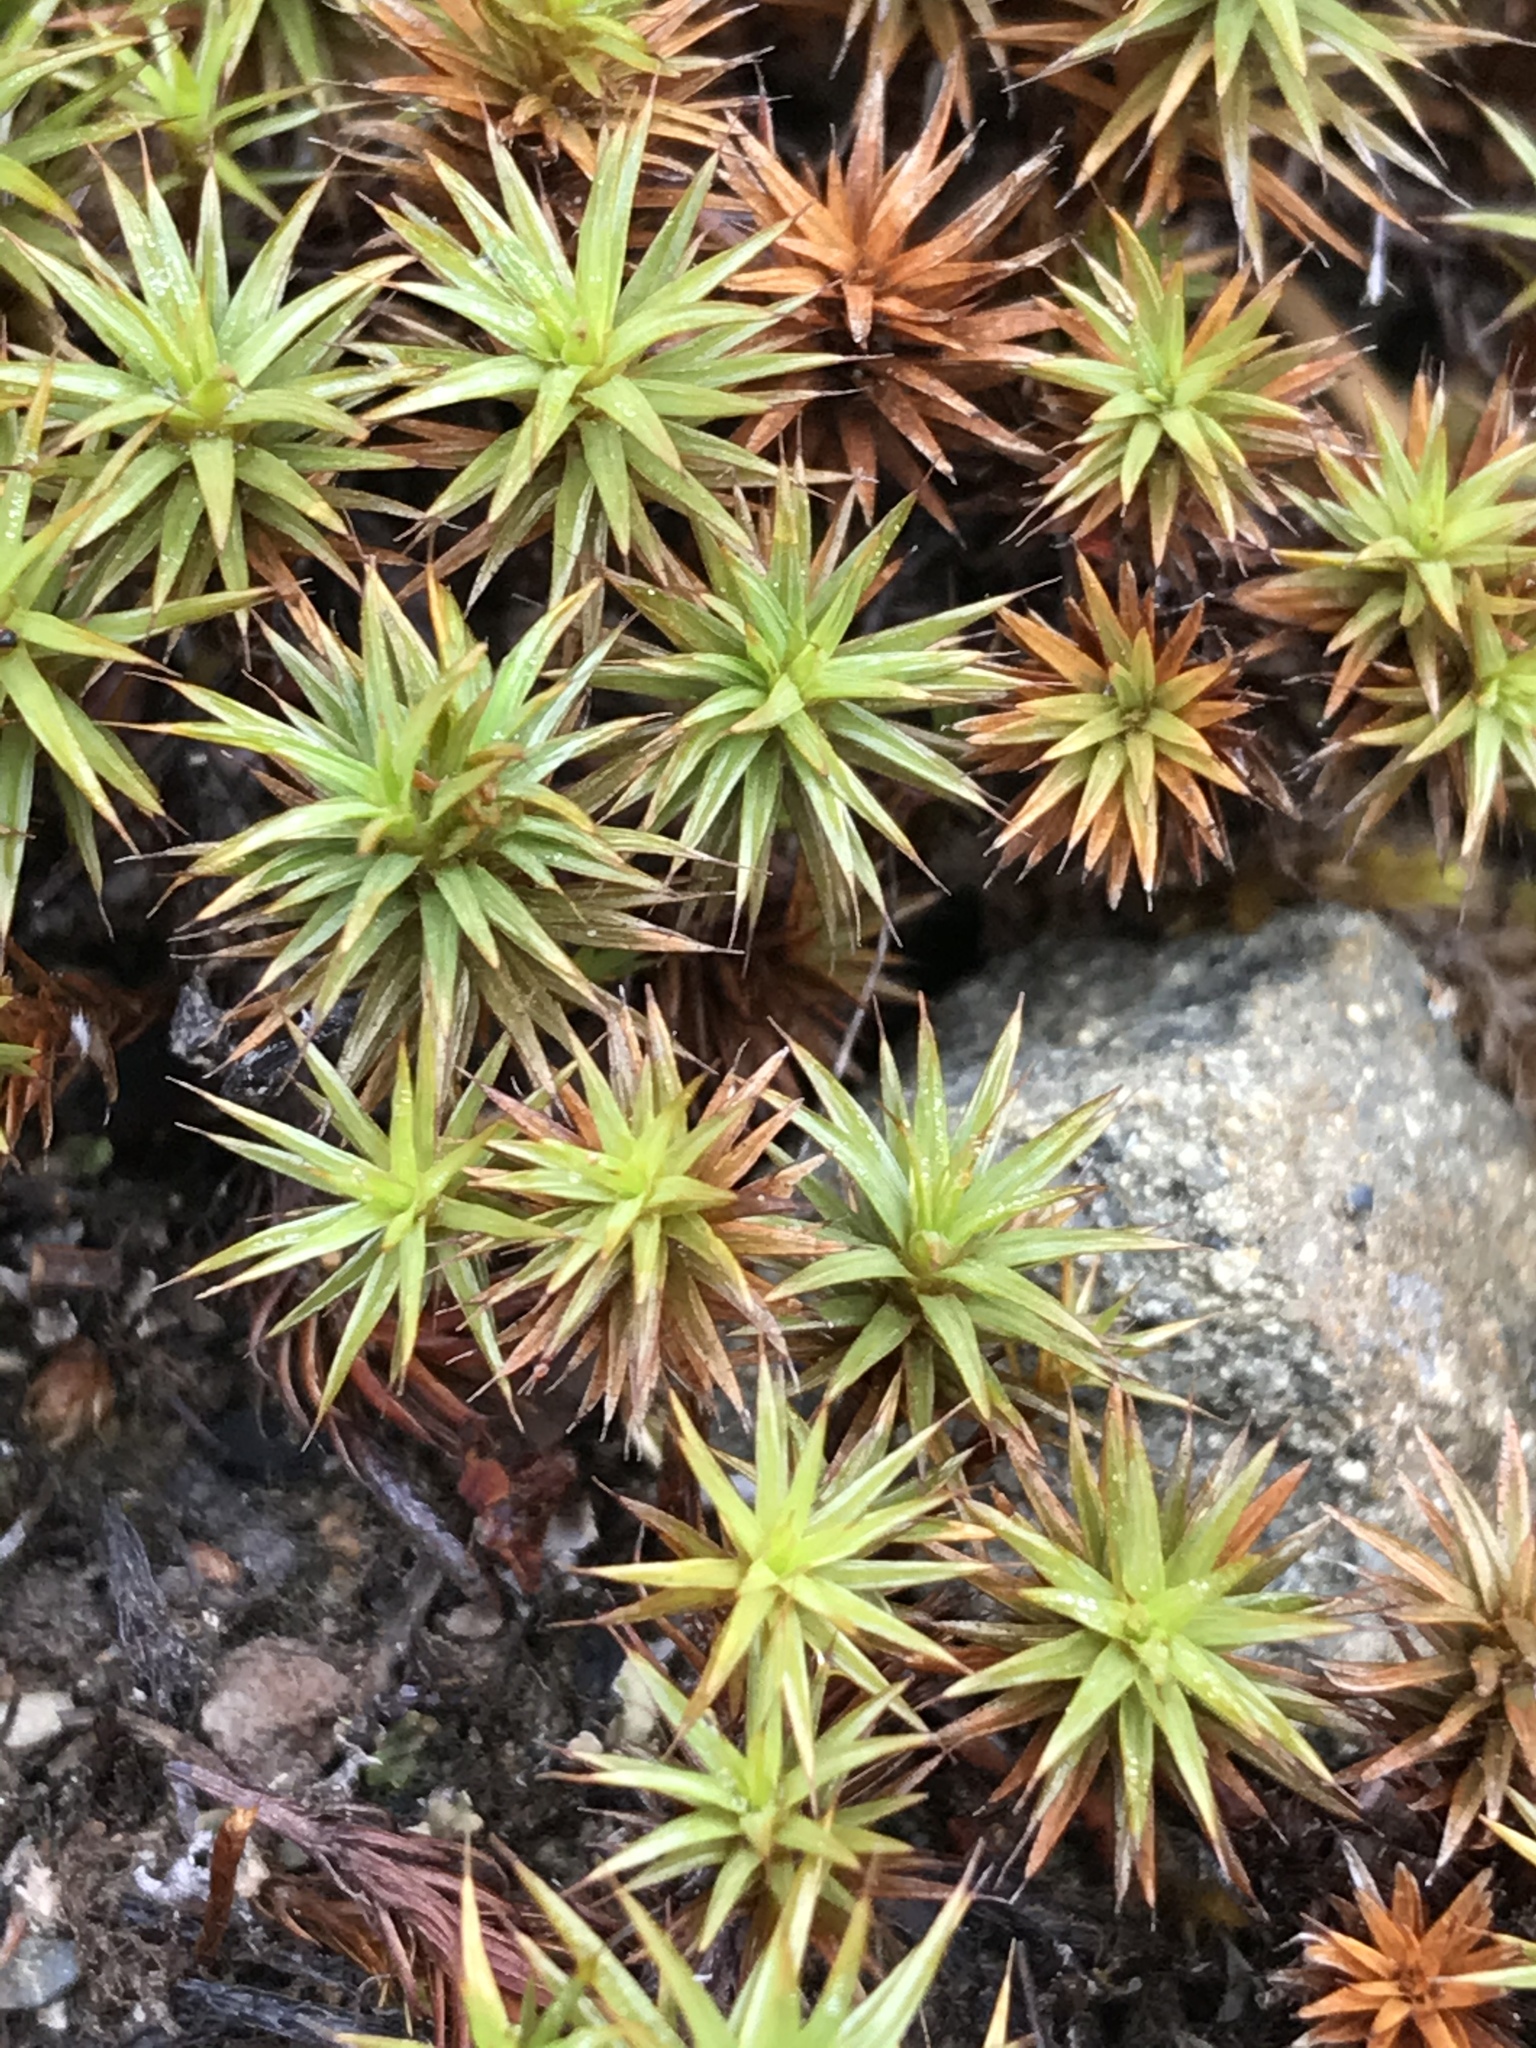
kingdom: Plantae
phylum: Bryophyta
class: Polytrichopsida
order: Polytrichales
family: Polytrichaceae
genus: Polytrichum
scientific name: Polytrichum juniperinum
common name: Juniper haircap moss
